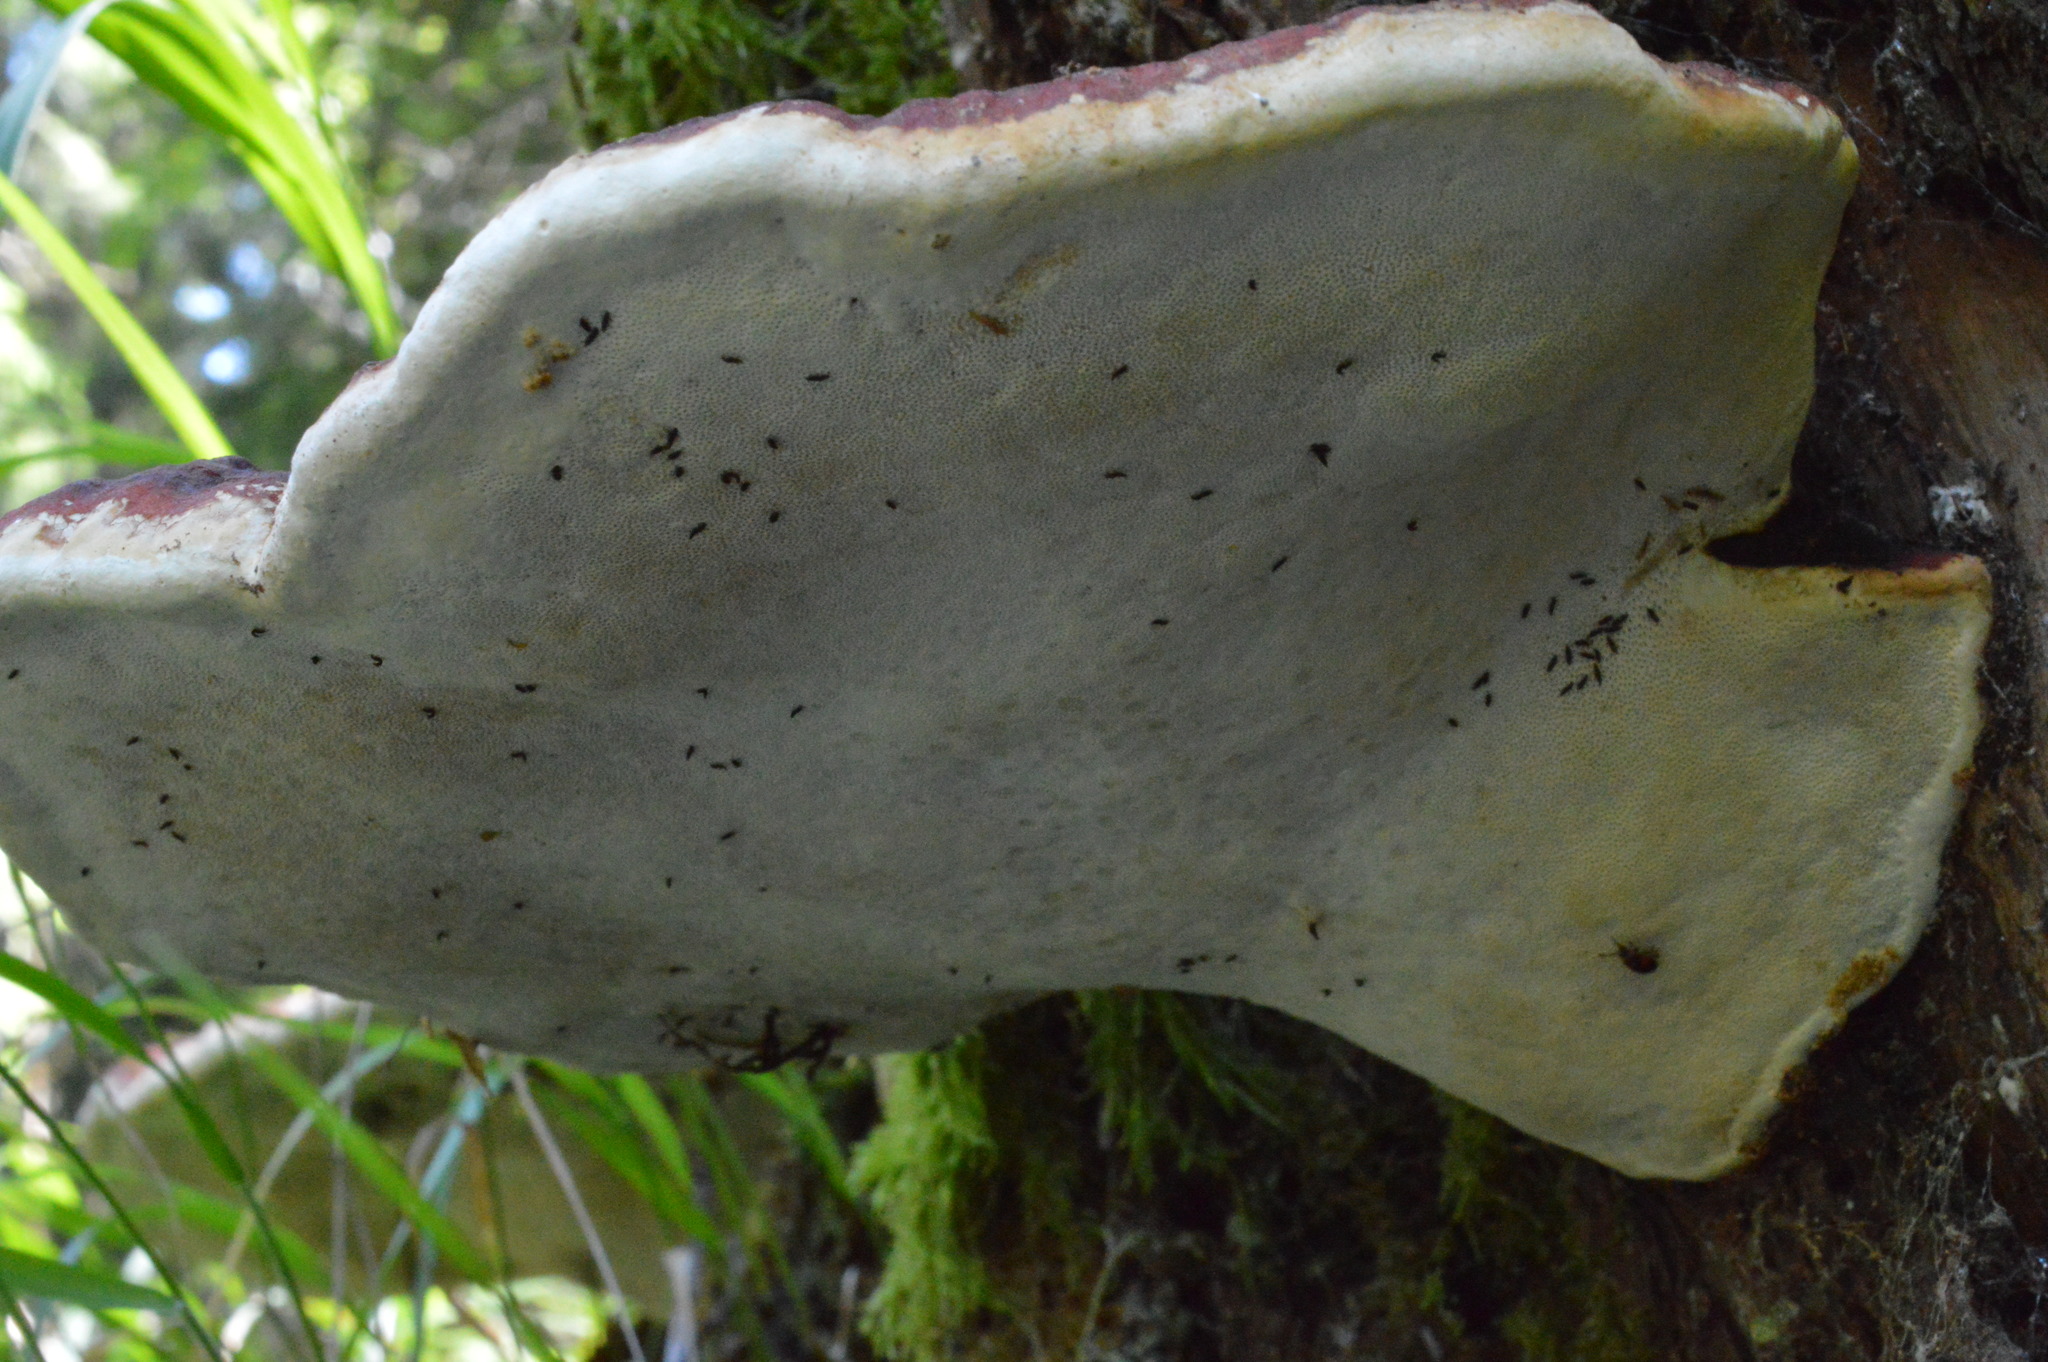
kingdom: Fungi
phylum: Basidiomycota
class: Agaricomycetes
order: Polyporales
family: Fomitopsidaceae
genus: Fomitopsis
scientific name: Fomitopsis pinicola
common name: Red-belted bracket
